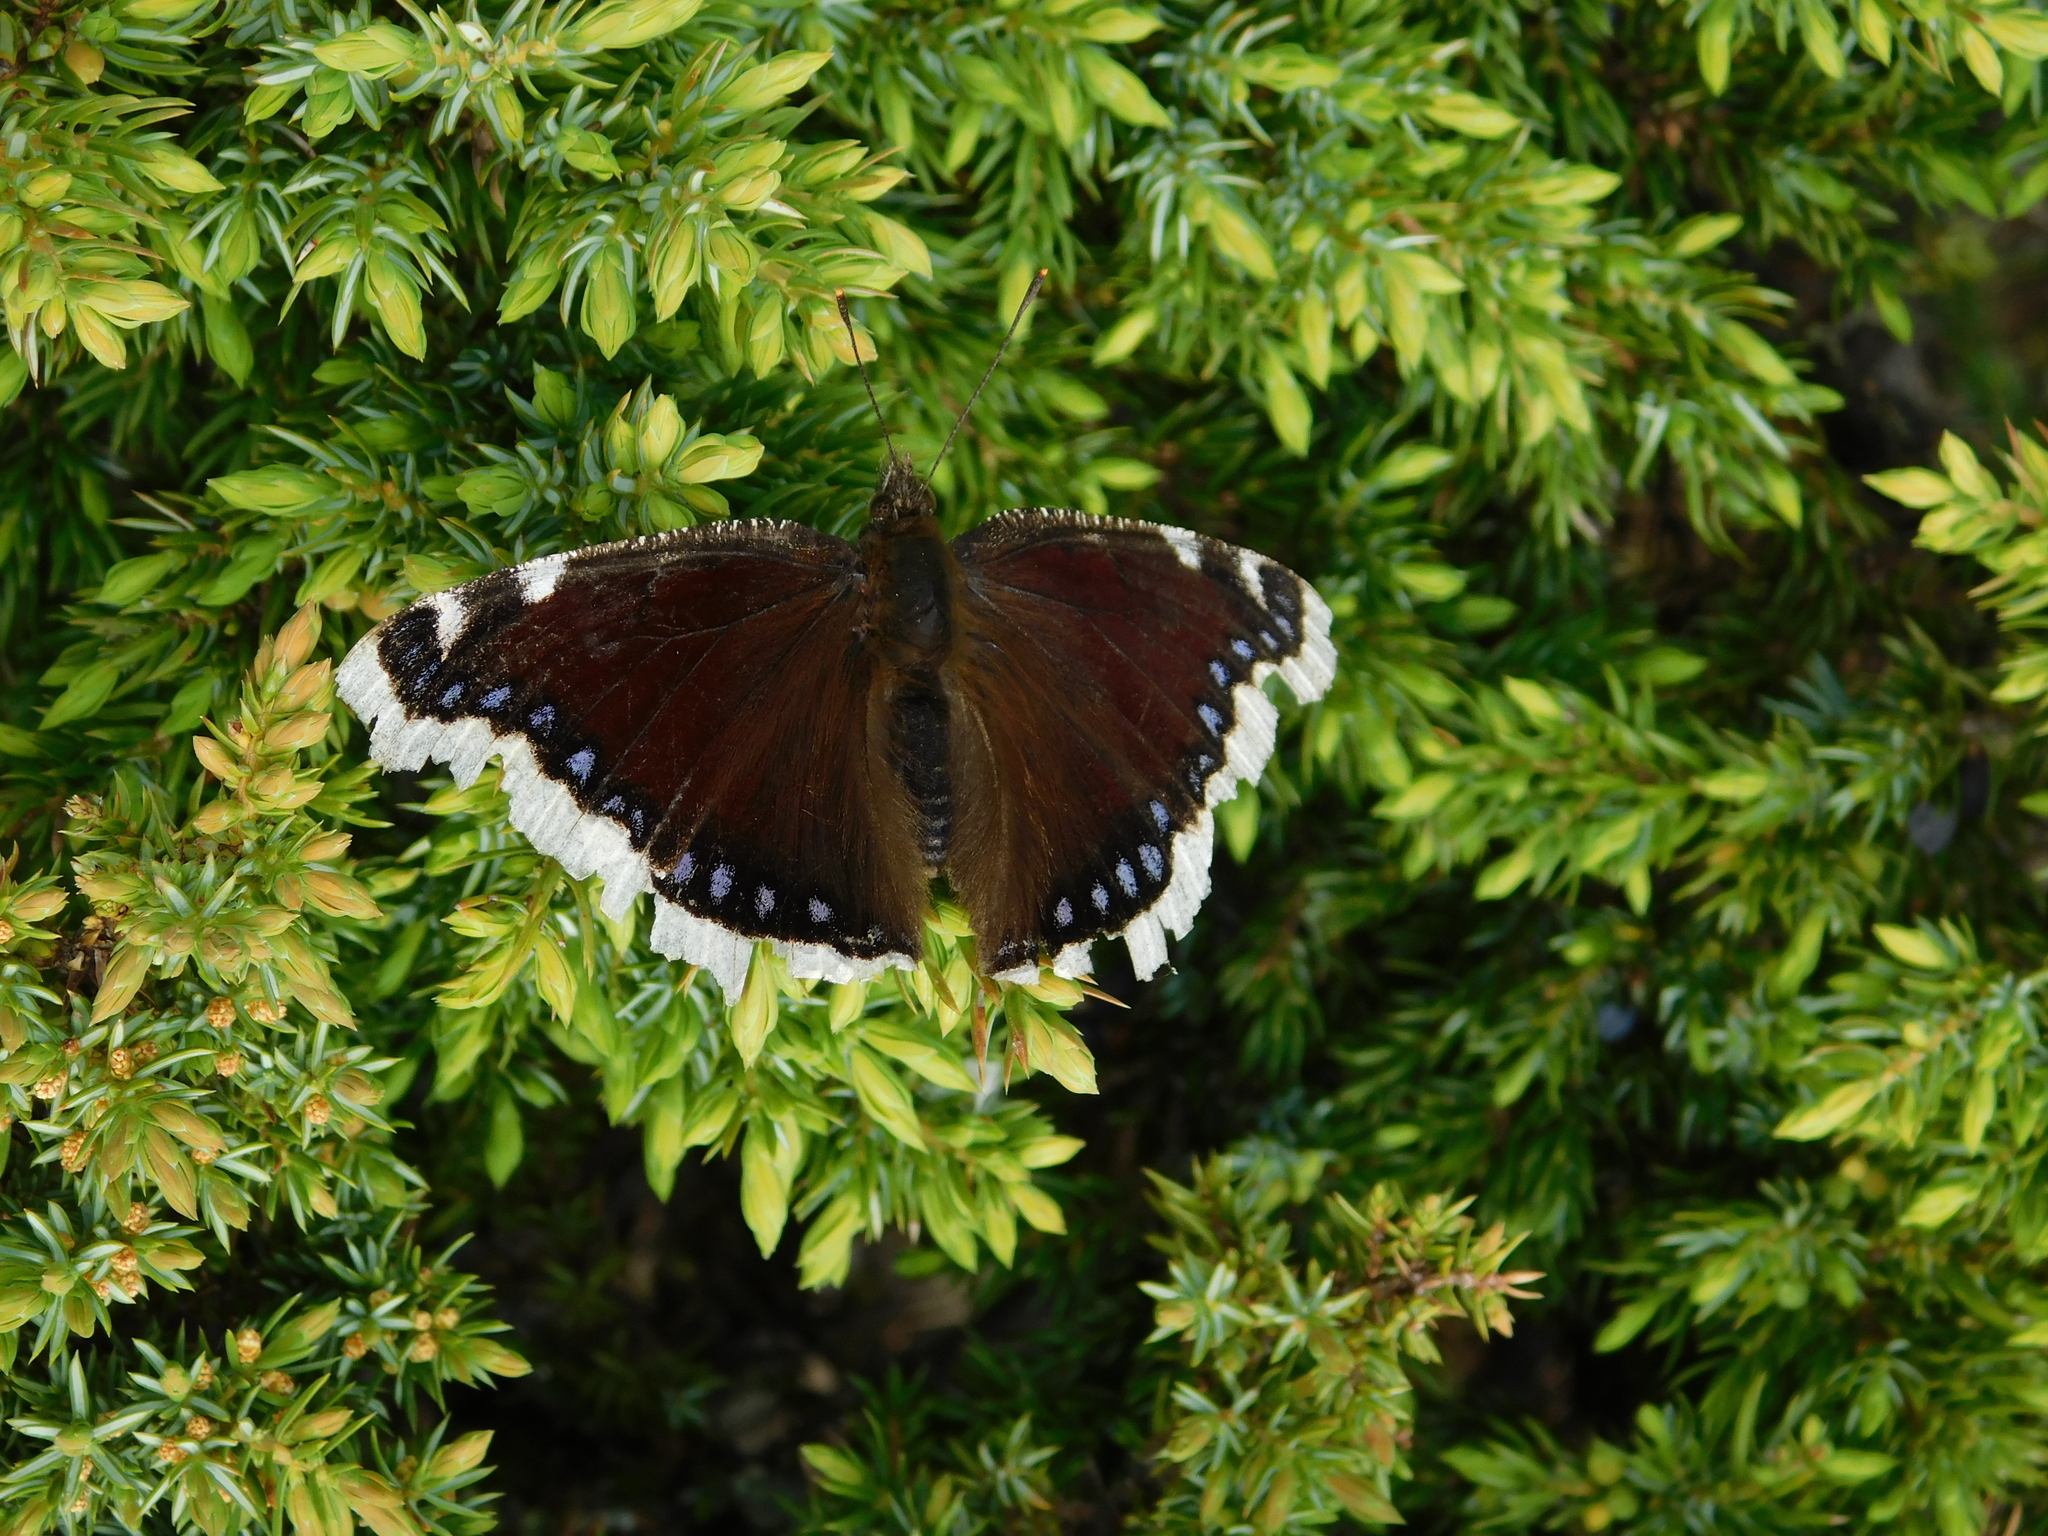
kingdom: Animalia
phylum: Arthropoda
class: Insecta
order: Lepidoptera
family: Nymphalidae
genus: Nymphalis
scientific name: Nymphalis antiopa
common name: Camberwell beauty
